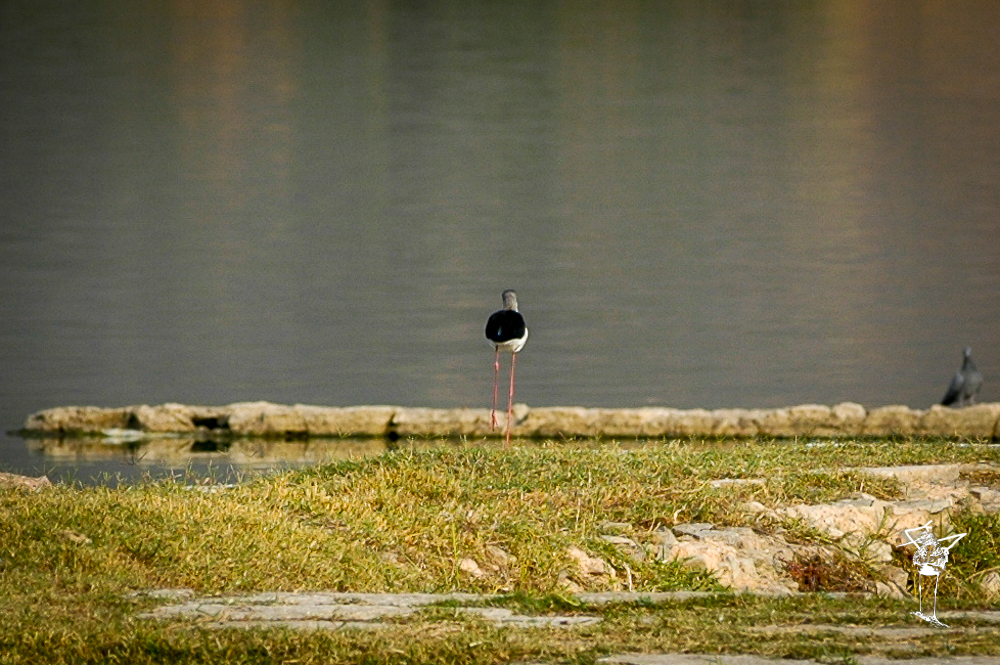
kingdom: Animalia
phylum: Chordata
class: Aves
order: Charadriiformes
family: Recurvirostridae
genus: Himantopus
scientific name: Himantopus himantopus
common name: Black-winged stilt
